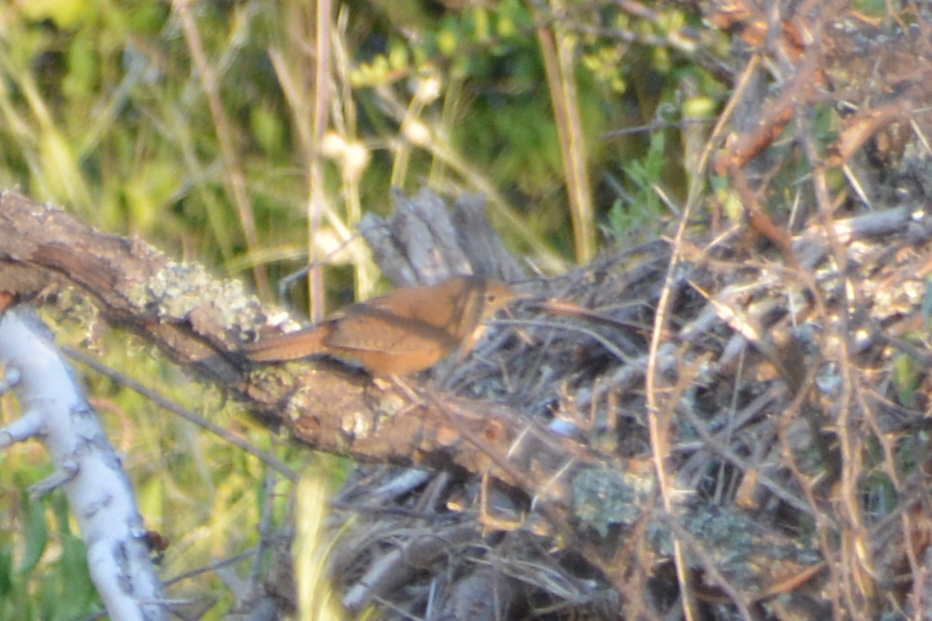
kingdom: Animalia
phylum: Chordata
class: Aves
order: Passeriformes
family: Troglodytidae
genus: Troglodytes
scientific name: Troglodytes aedon
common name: House wren
